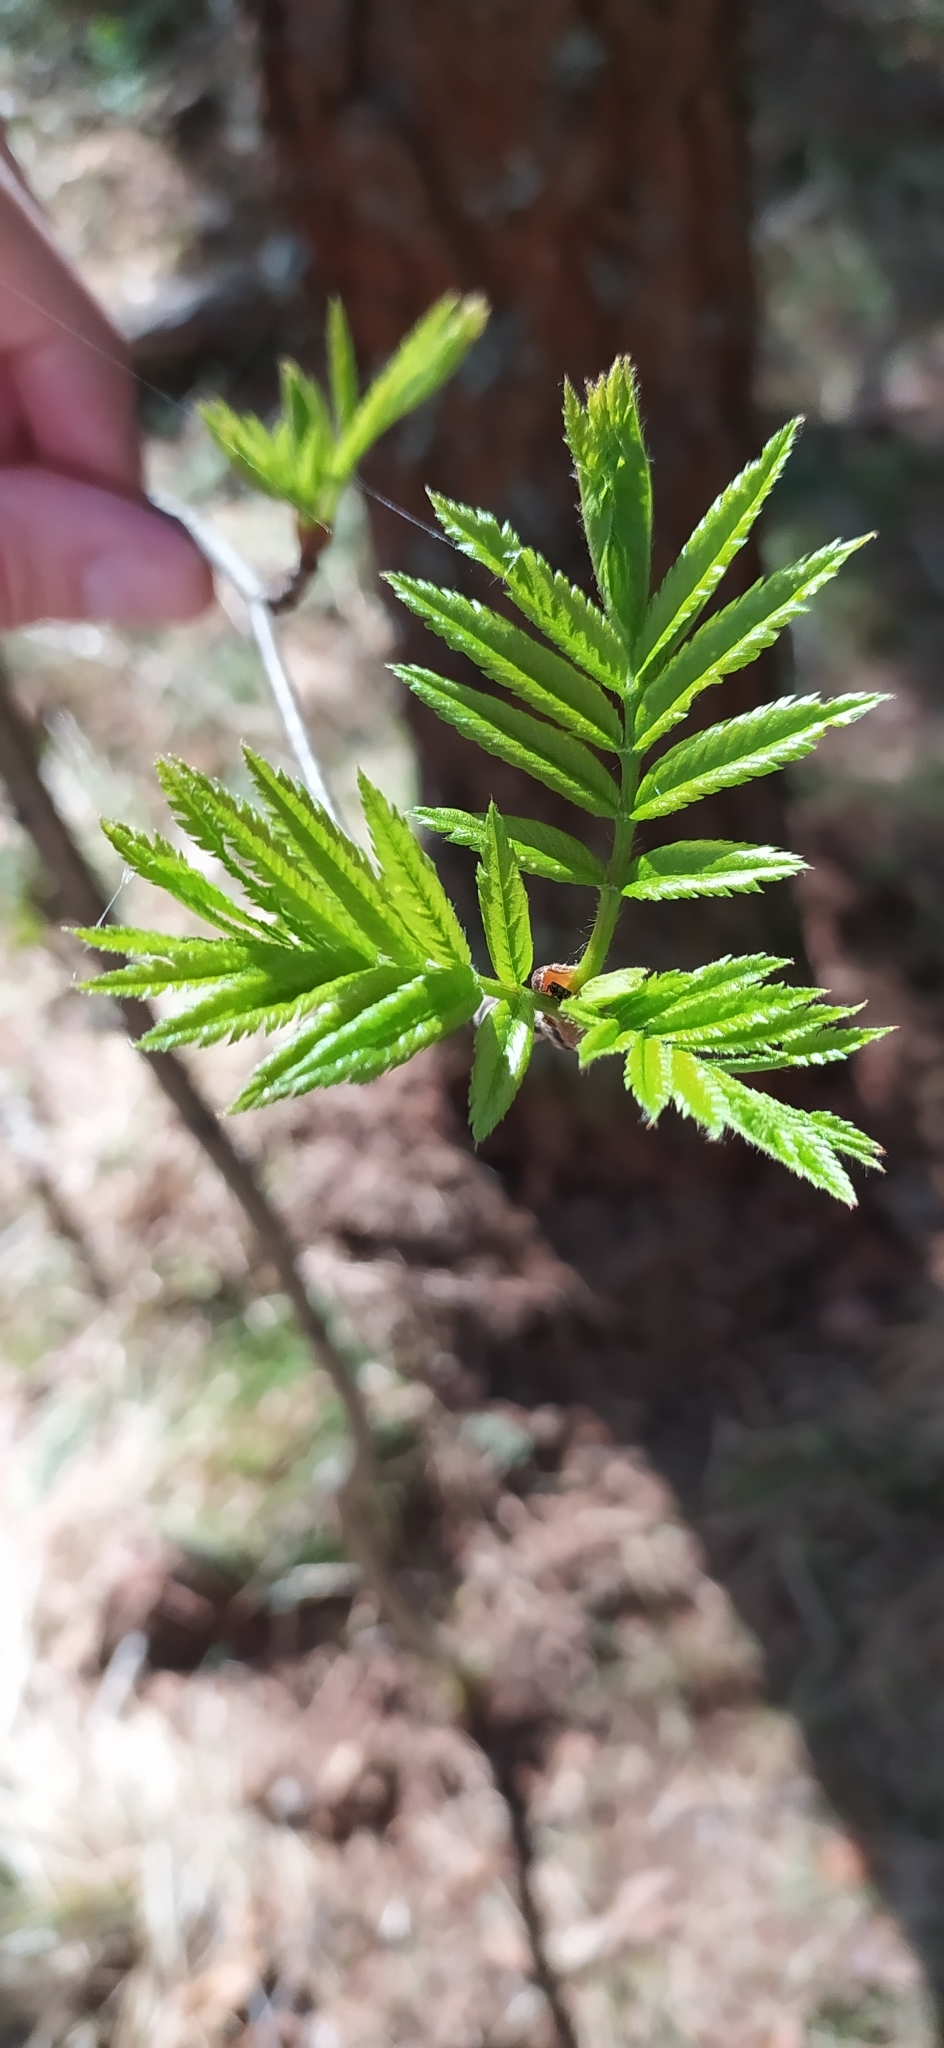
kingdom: Plantae
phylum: Tracheophyta
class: Magnoliopsida
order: Rosales
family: Rosaceae
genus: Sorbus
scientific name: Sorbus aucuparia
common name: Rowan
